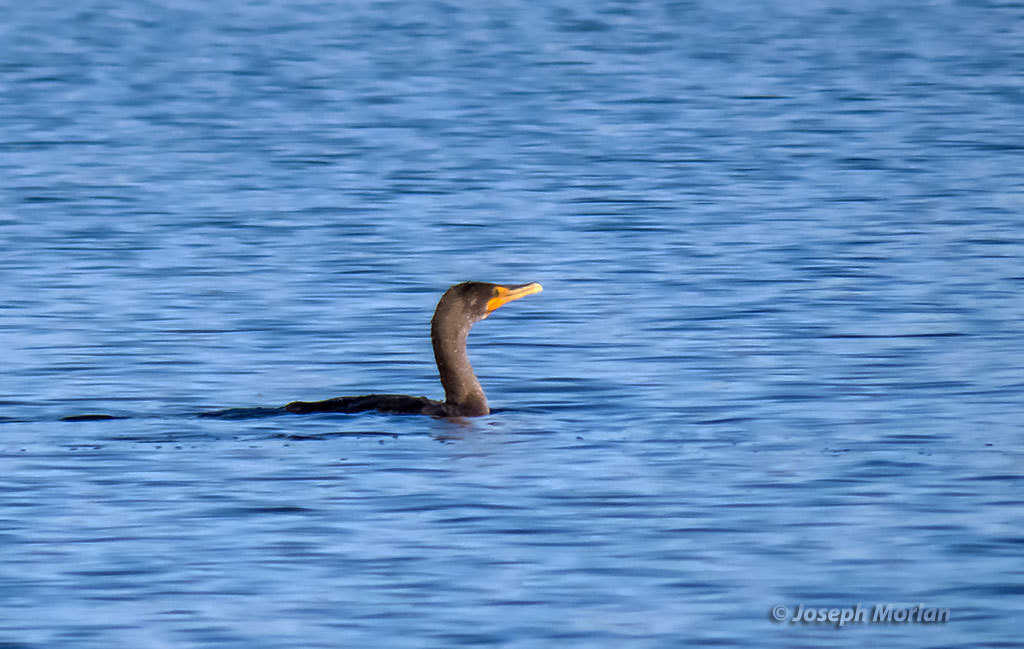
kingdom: Animalia
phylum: Chordata
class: Aves
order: Suliformes
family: Phalacrocoracidae
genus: Phalacrocorax
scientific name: Phalacrocorax auritus
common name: Double-crested cormorant
